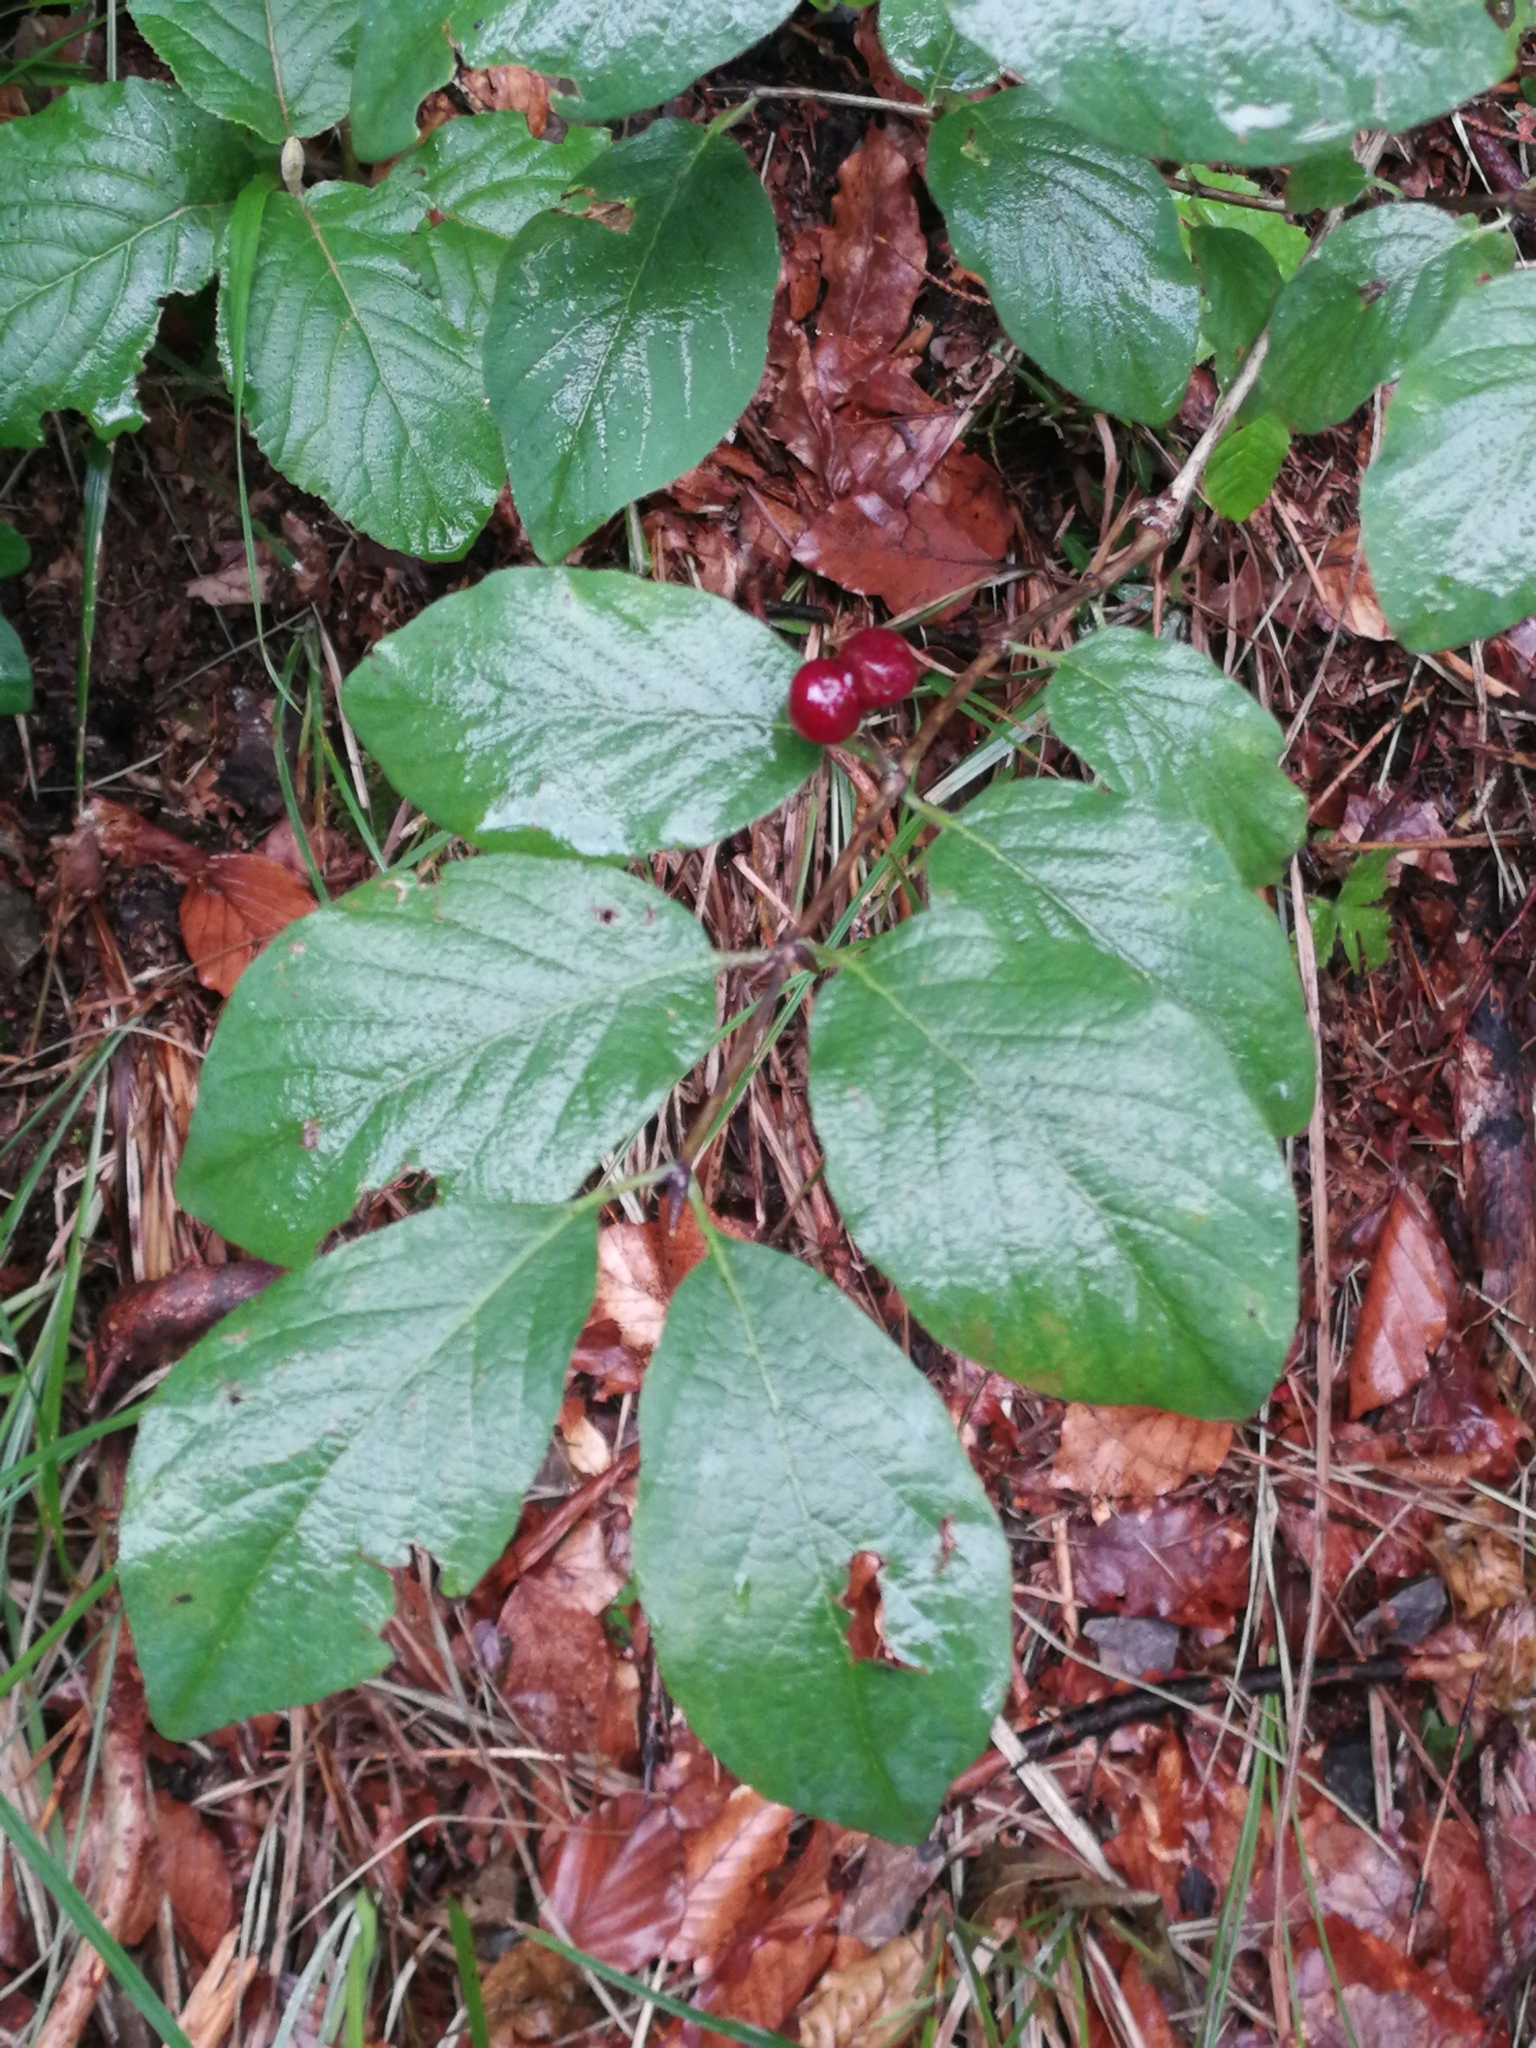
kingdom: Plantae
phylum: Tracheophyta
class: Magnoliopsida
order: Dipsacales
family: Caprifoliaceae
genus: Lonicera
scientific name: Lonicera xylosteum
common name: Fly honeysuckle
